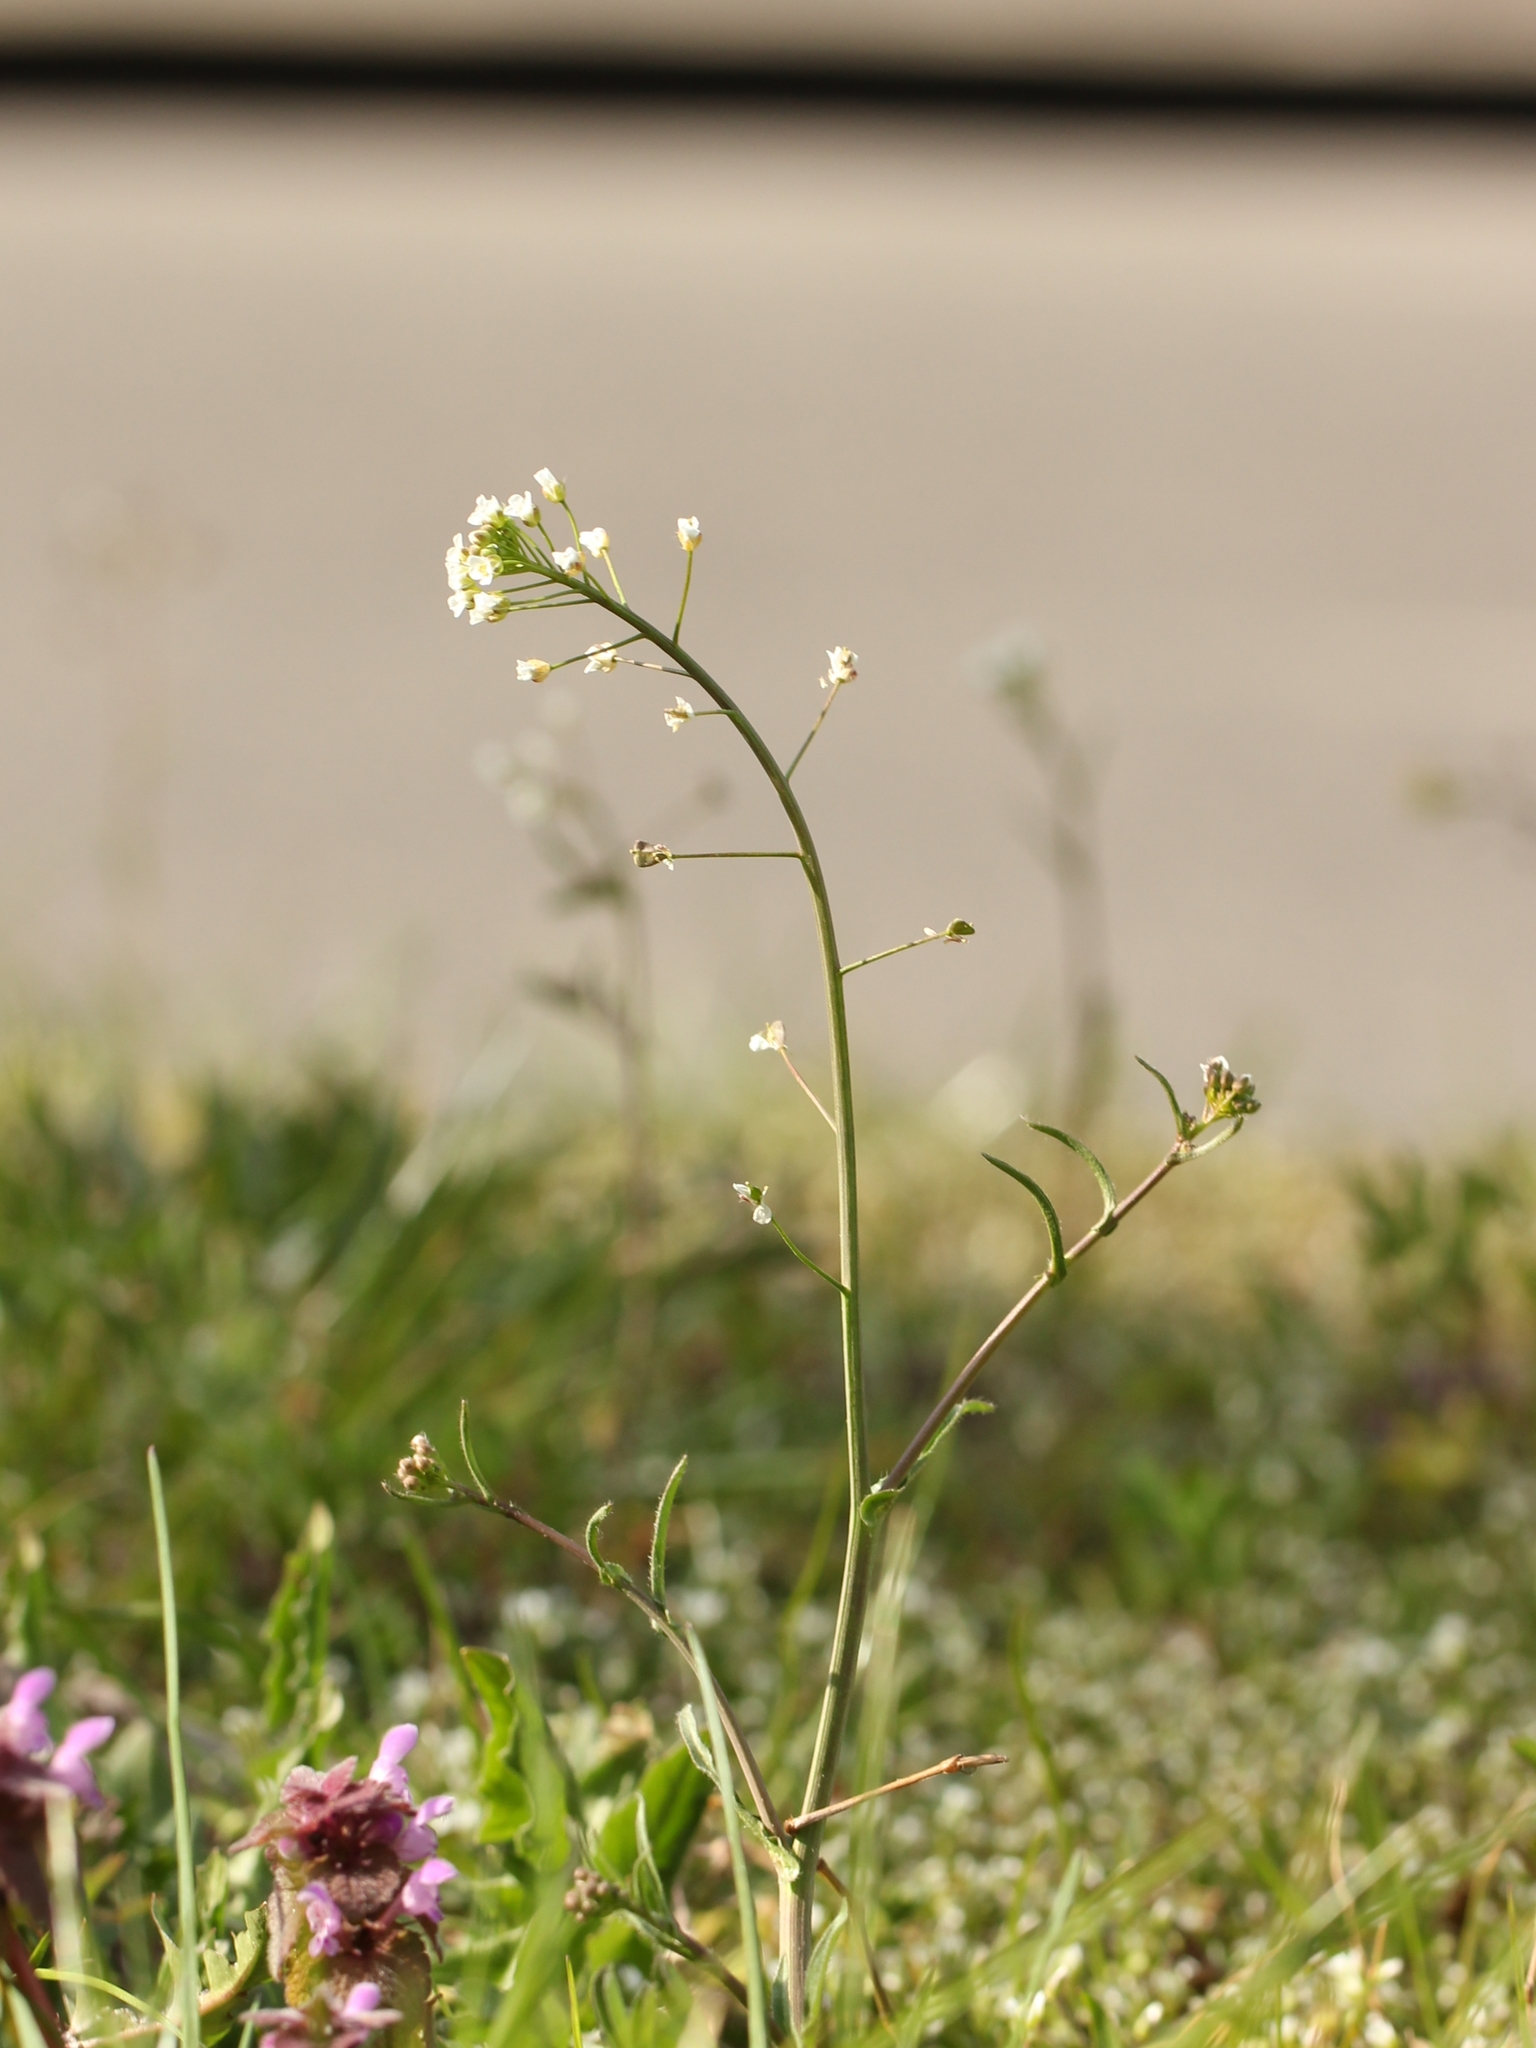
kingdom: Plantae
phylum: Tracheophyta
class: Magnoliopsida
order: Brassicales
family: Brassicaceae
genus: Capsella
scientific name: Capsella bursa-pastoris
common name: Shepherd's purse
